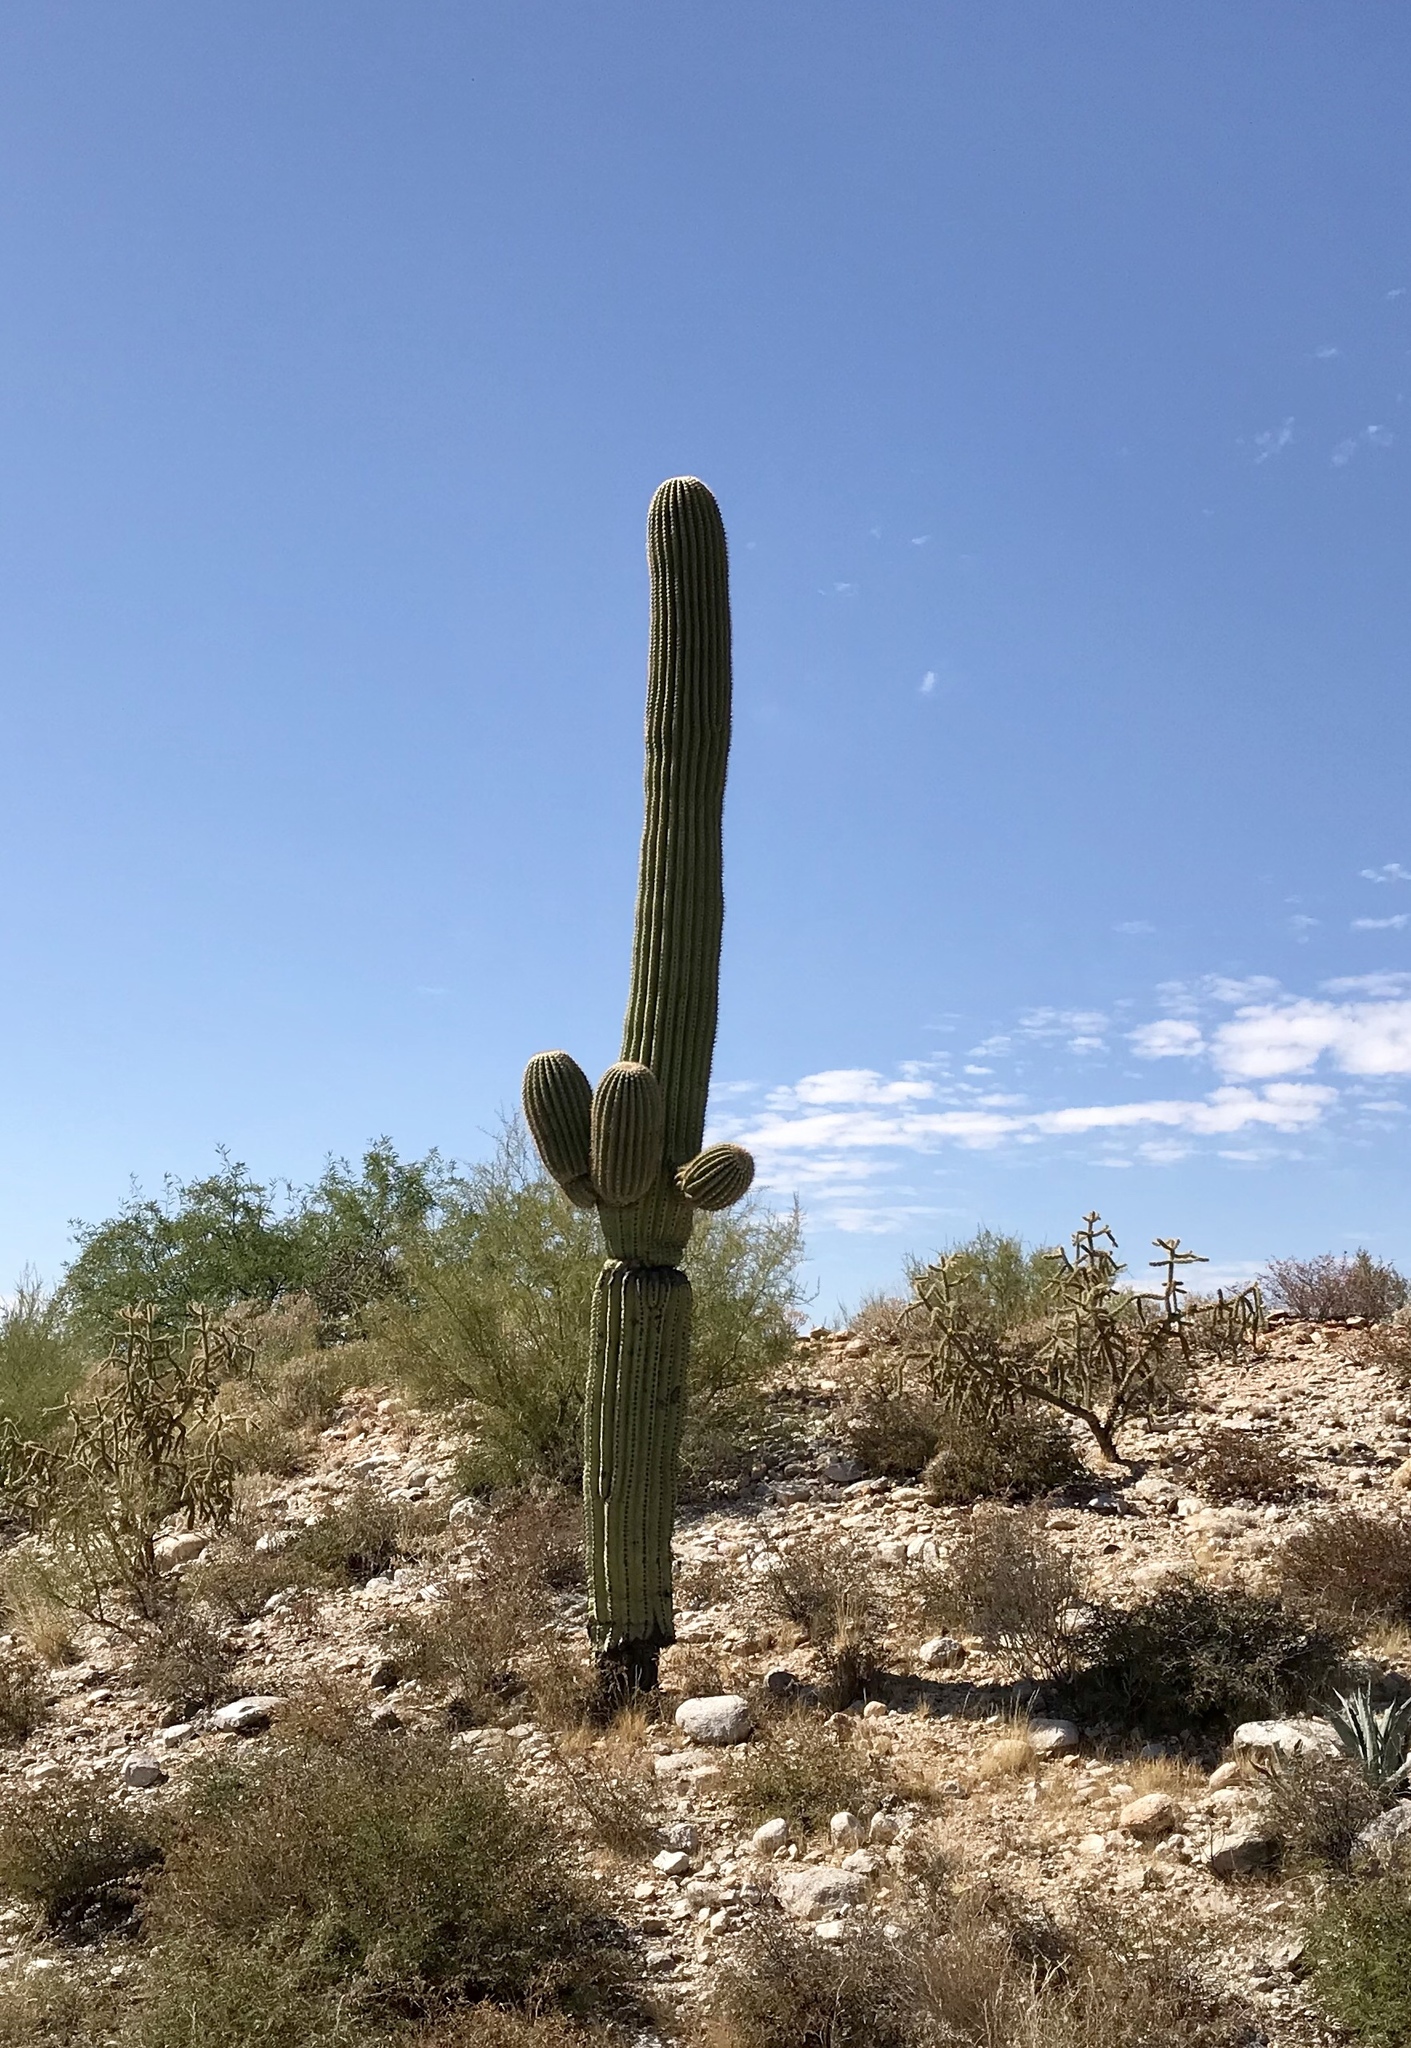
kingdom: Plantae
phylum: Tracheophyta
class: Magnoliopsida
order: Caryophyllales
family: Cactaceae
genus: Carnegiea
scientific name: Carnegiea gigantea
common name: Saguaro
